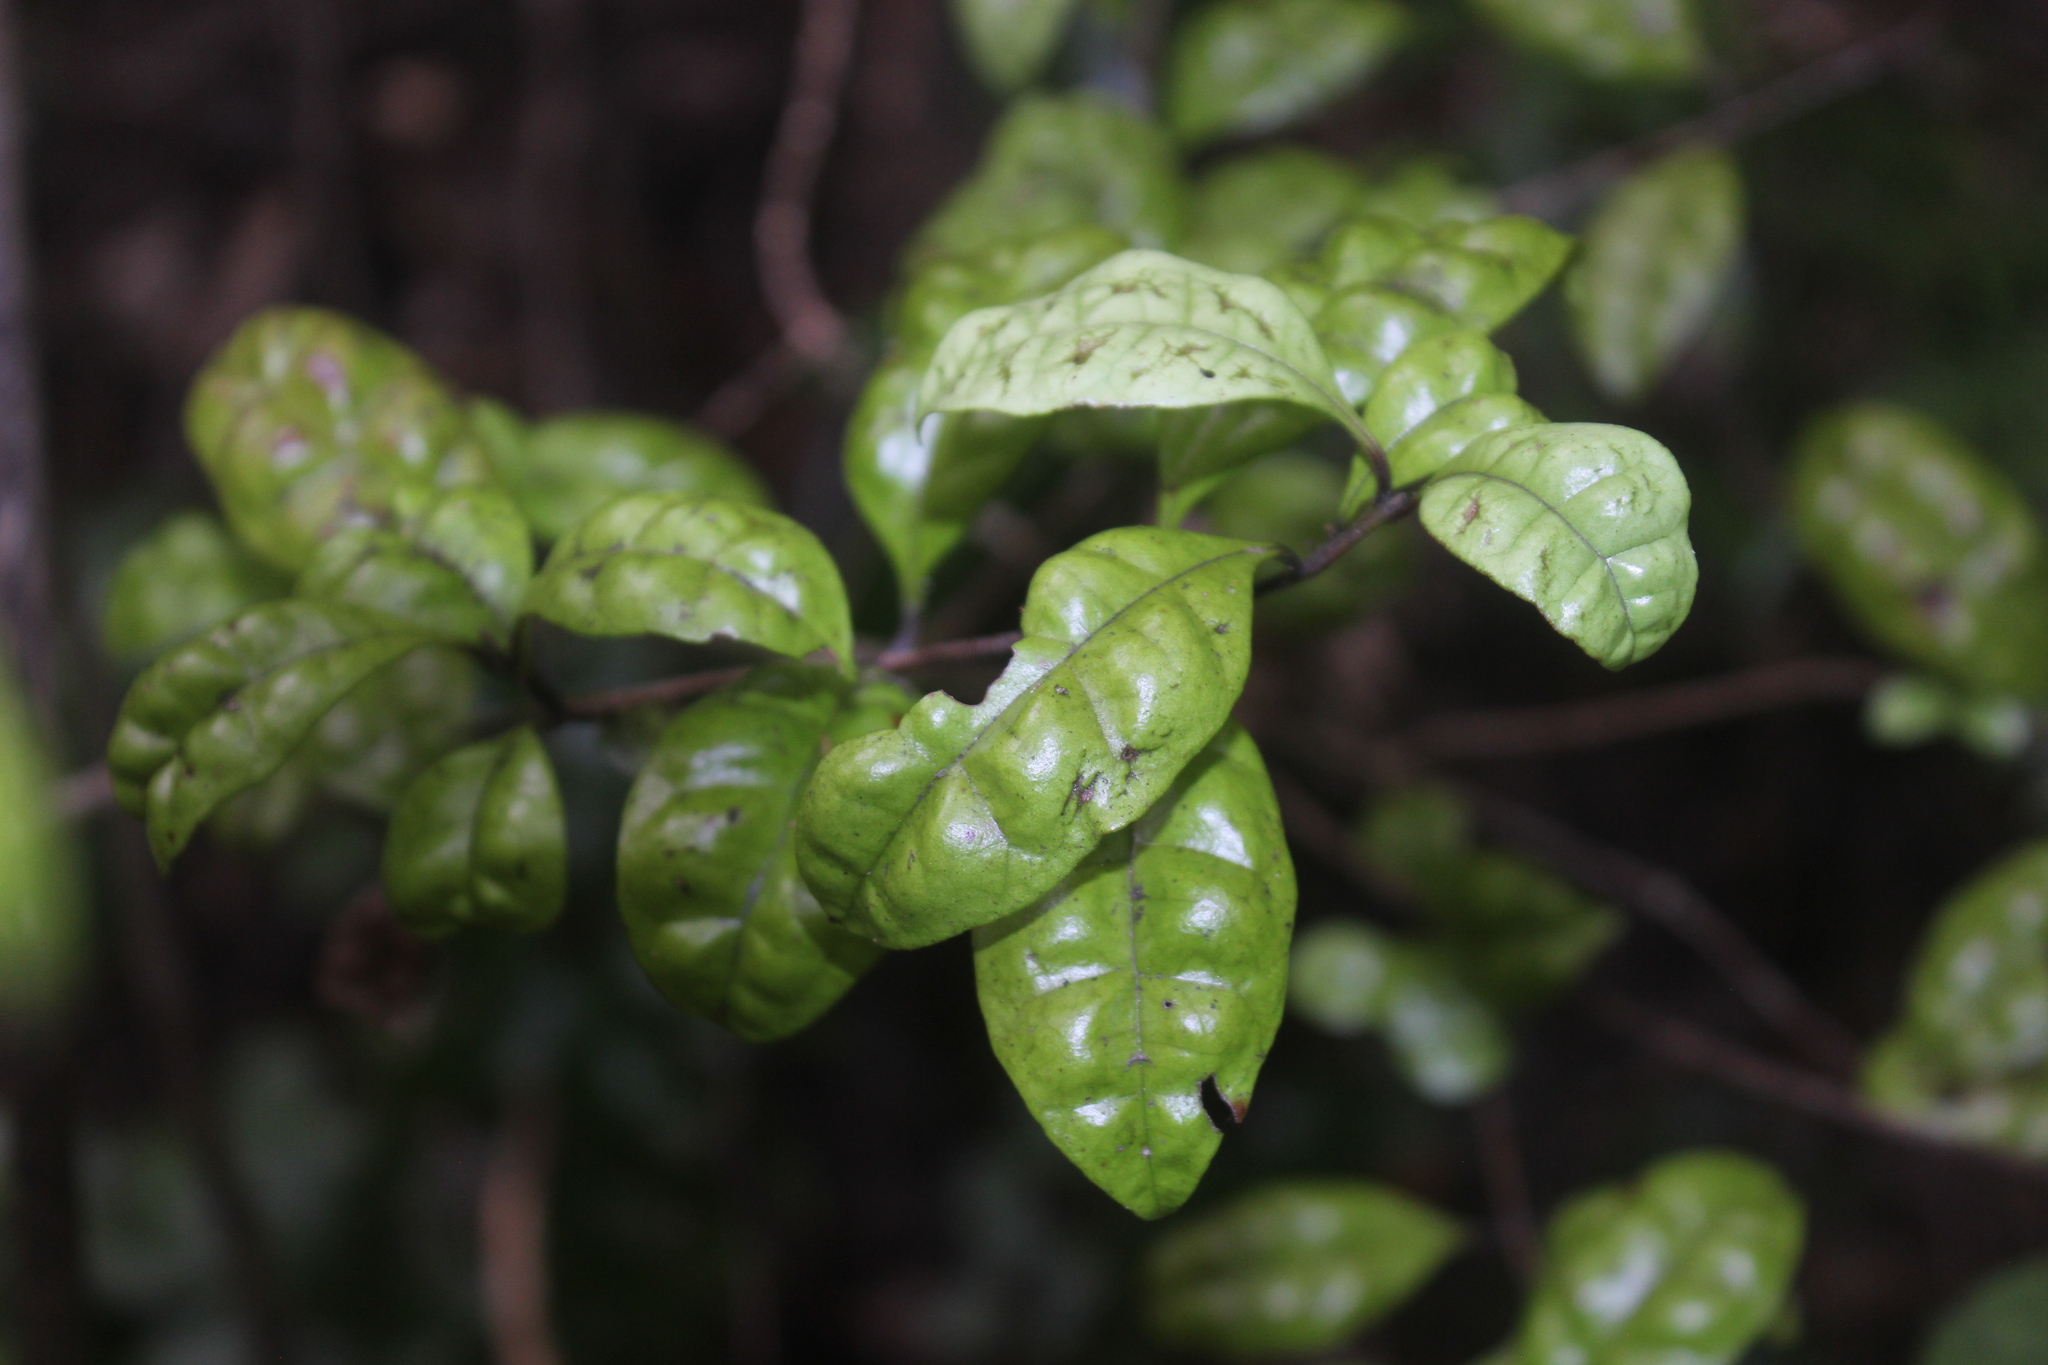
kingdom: Plantae
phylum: Tracheophyta
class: Magnoliopsida
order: Myrtales
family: Myrtaceae
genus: Lophomyrtus
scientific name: Lophomyrtus bullata
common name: Rama rama
